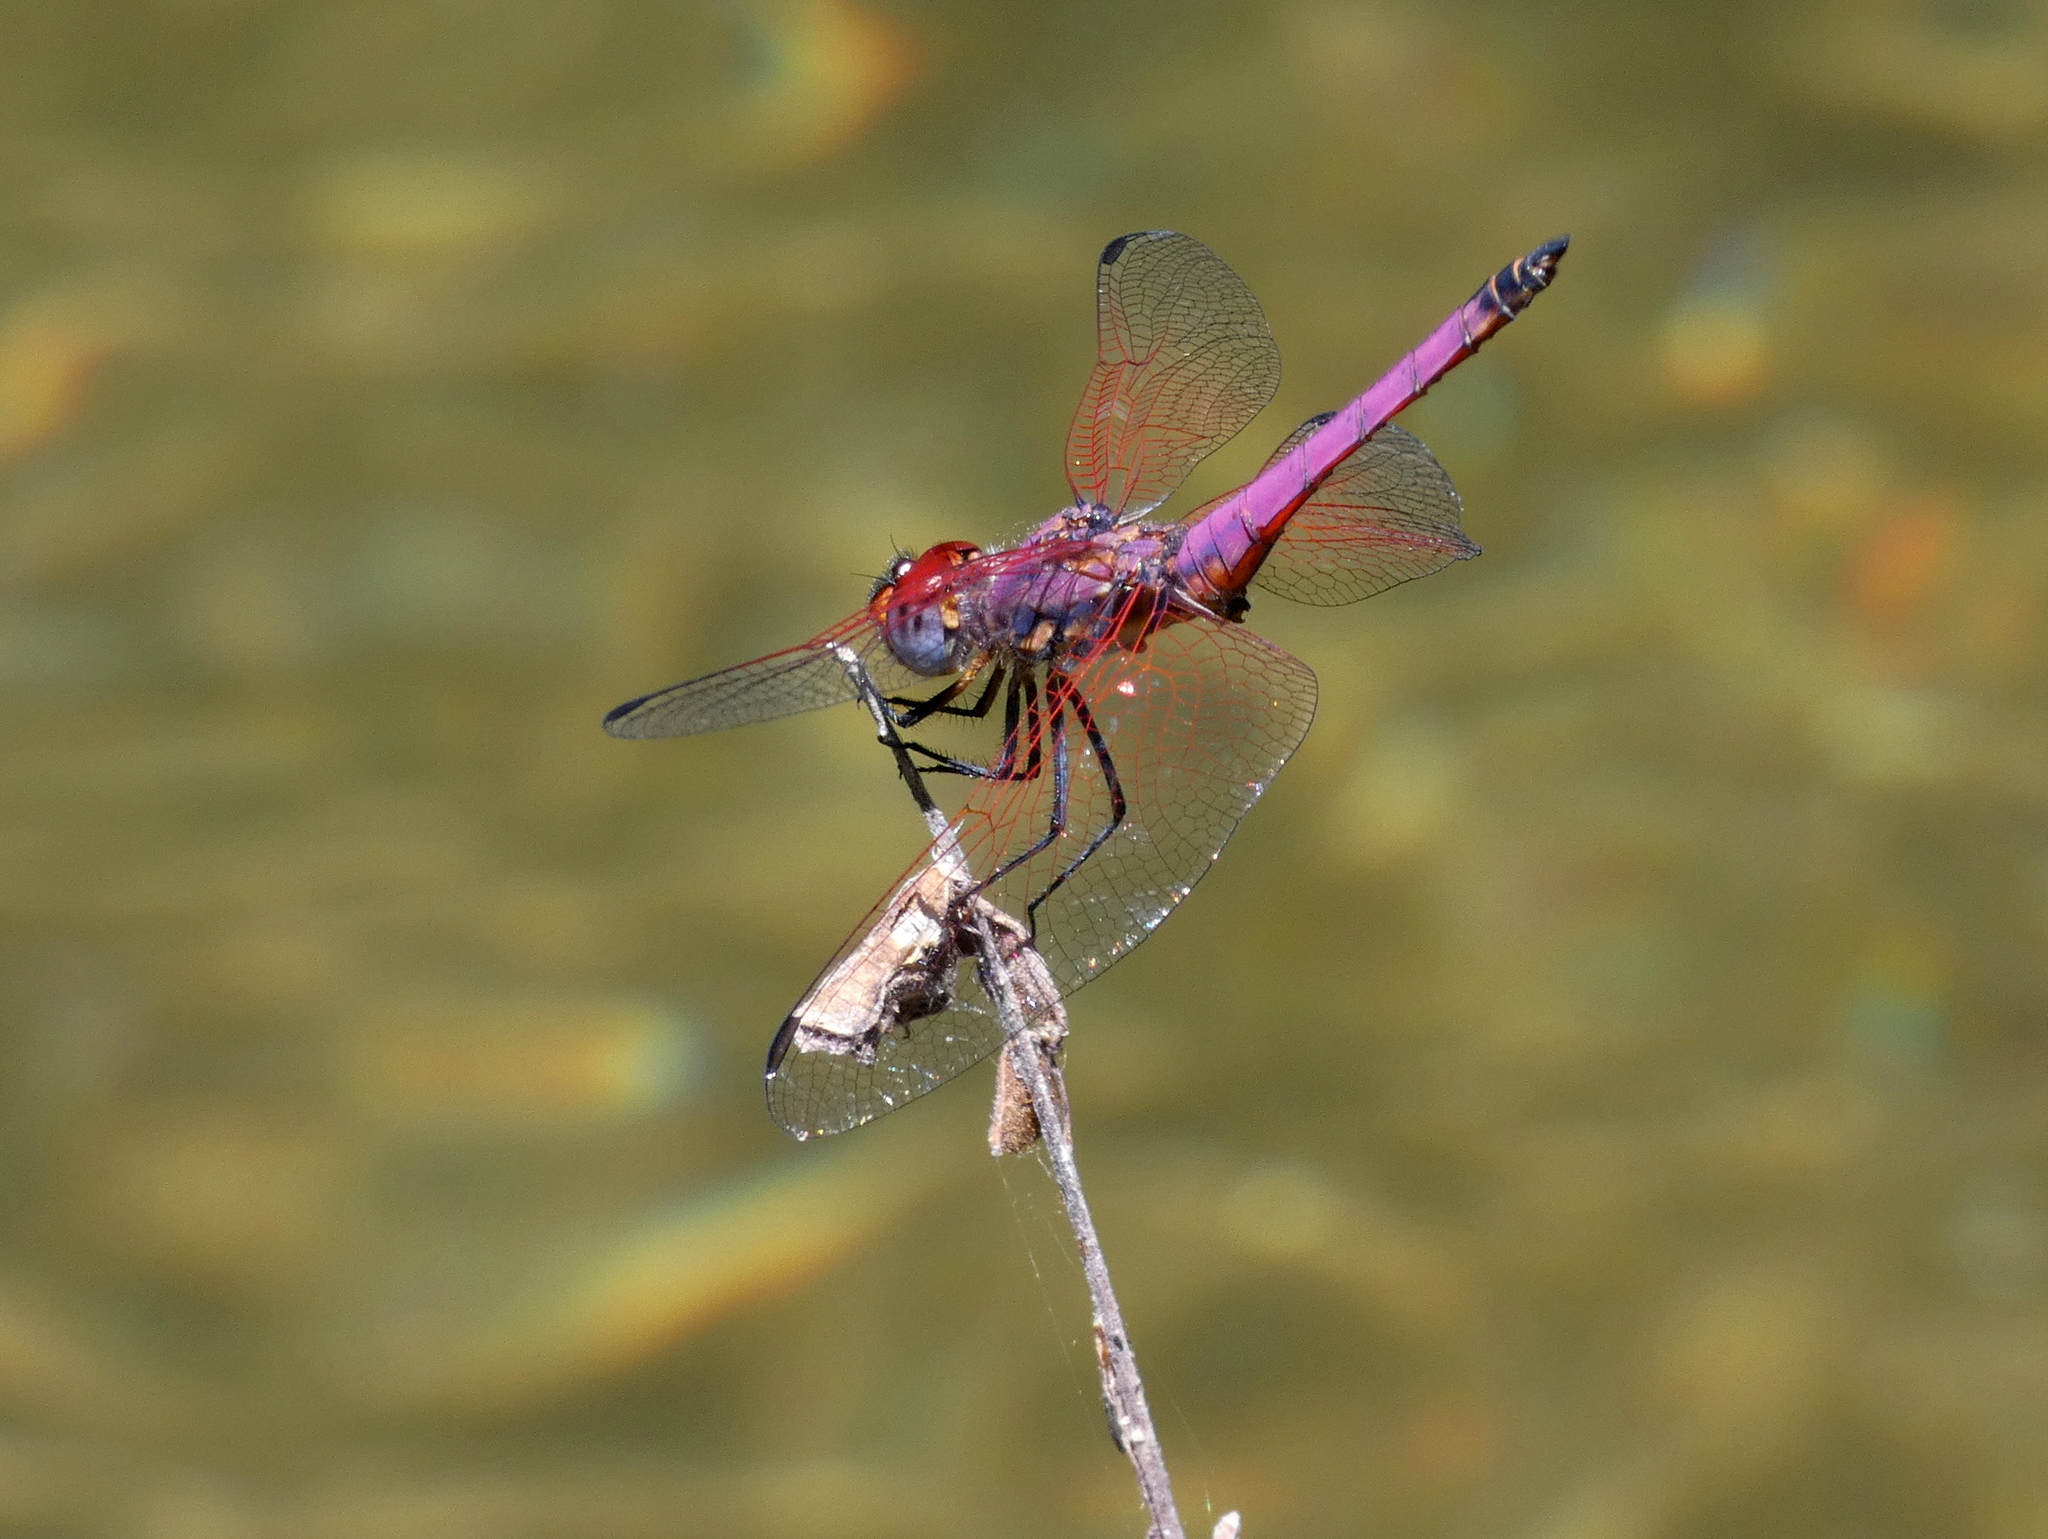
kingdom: Animalia
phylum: Arthropoda
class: Insecta
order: Odonata
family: Libellulidae
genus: Trithemis
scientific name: Trithemis persephone
